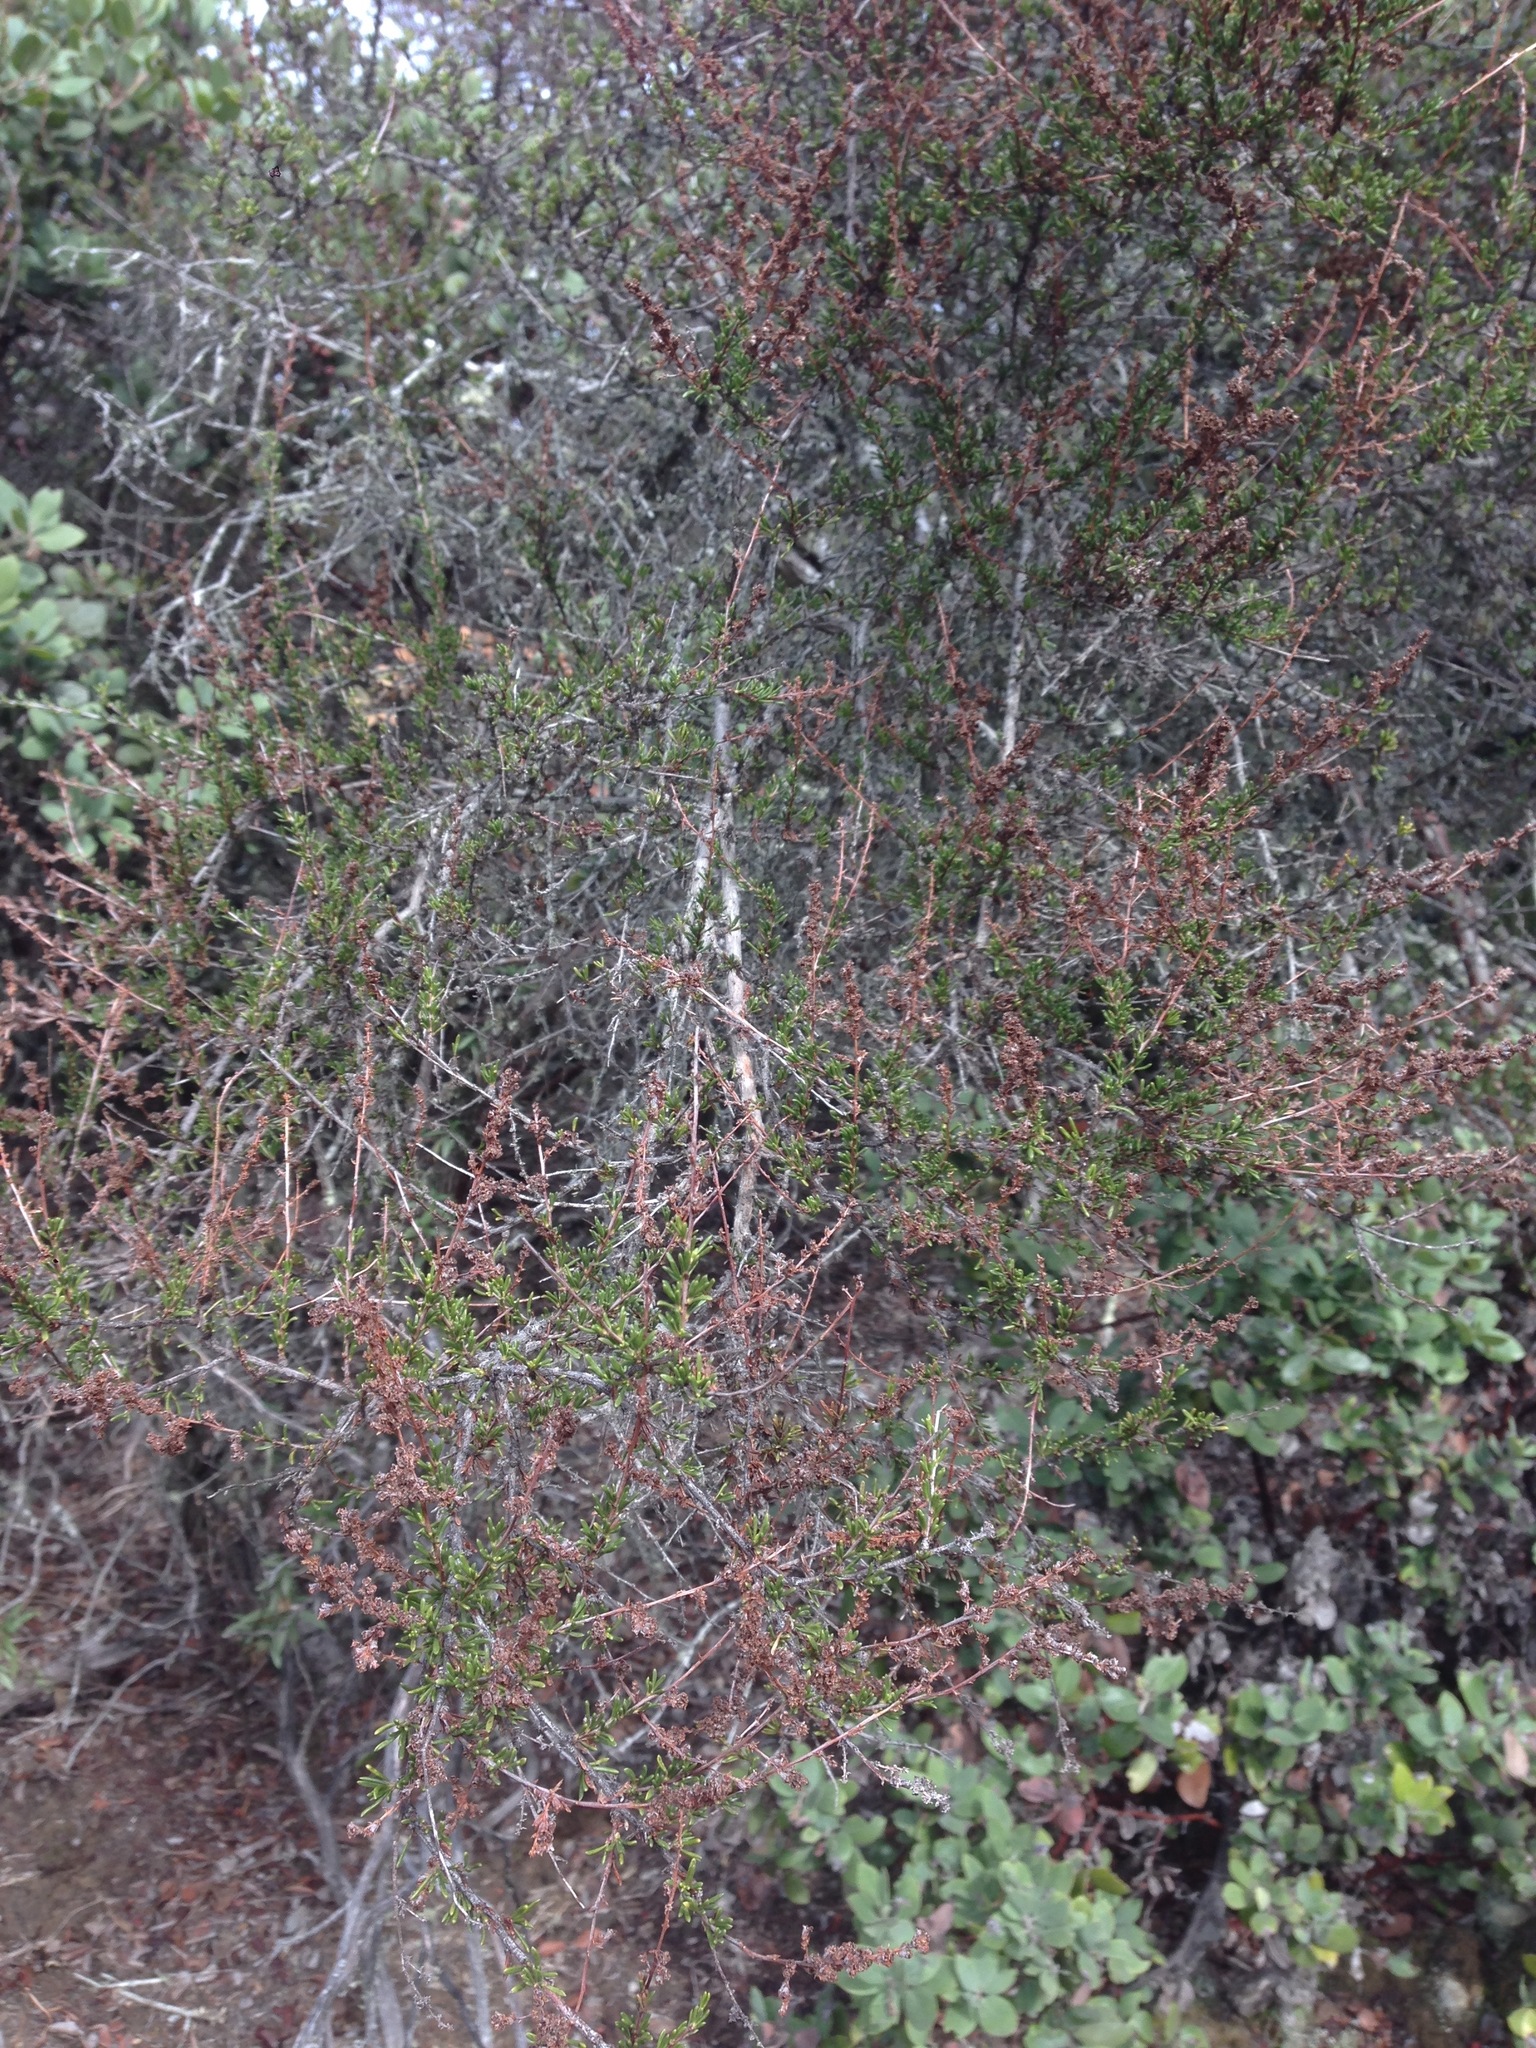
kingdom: Plantae
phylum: Tracheophyta
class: Magnoliopsida
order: Rosales
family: Rosaceae
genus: Adenostoma
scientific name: Adenostoma fasciculatum
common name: Chamise
